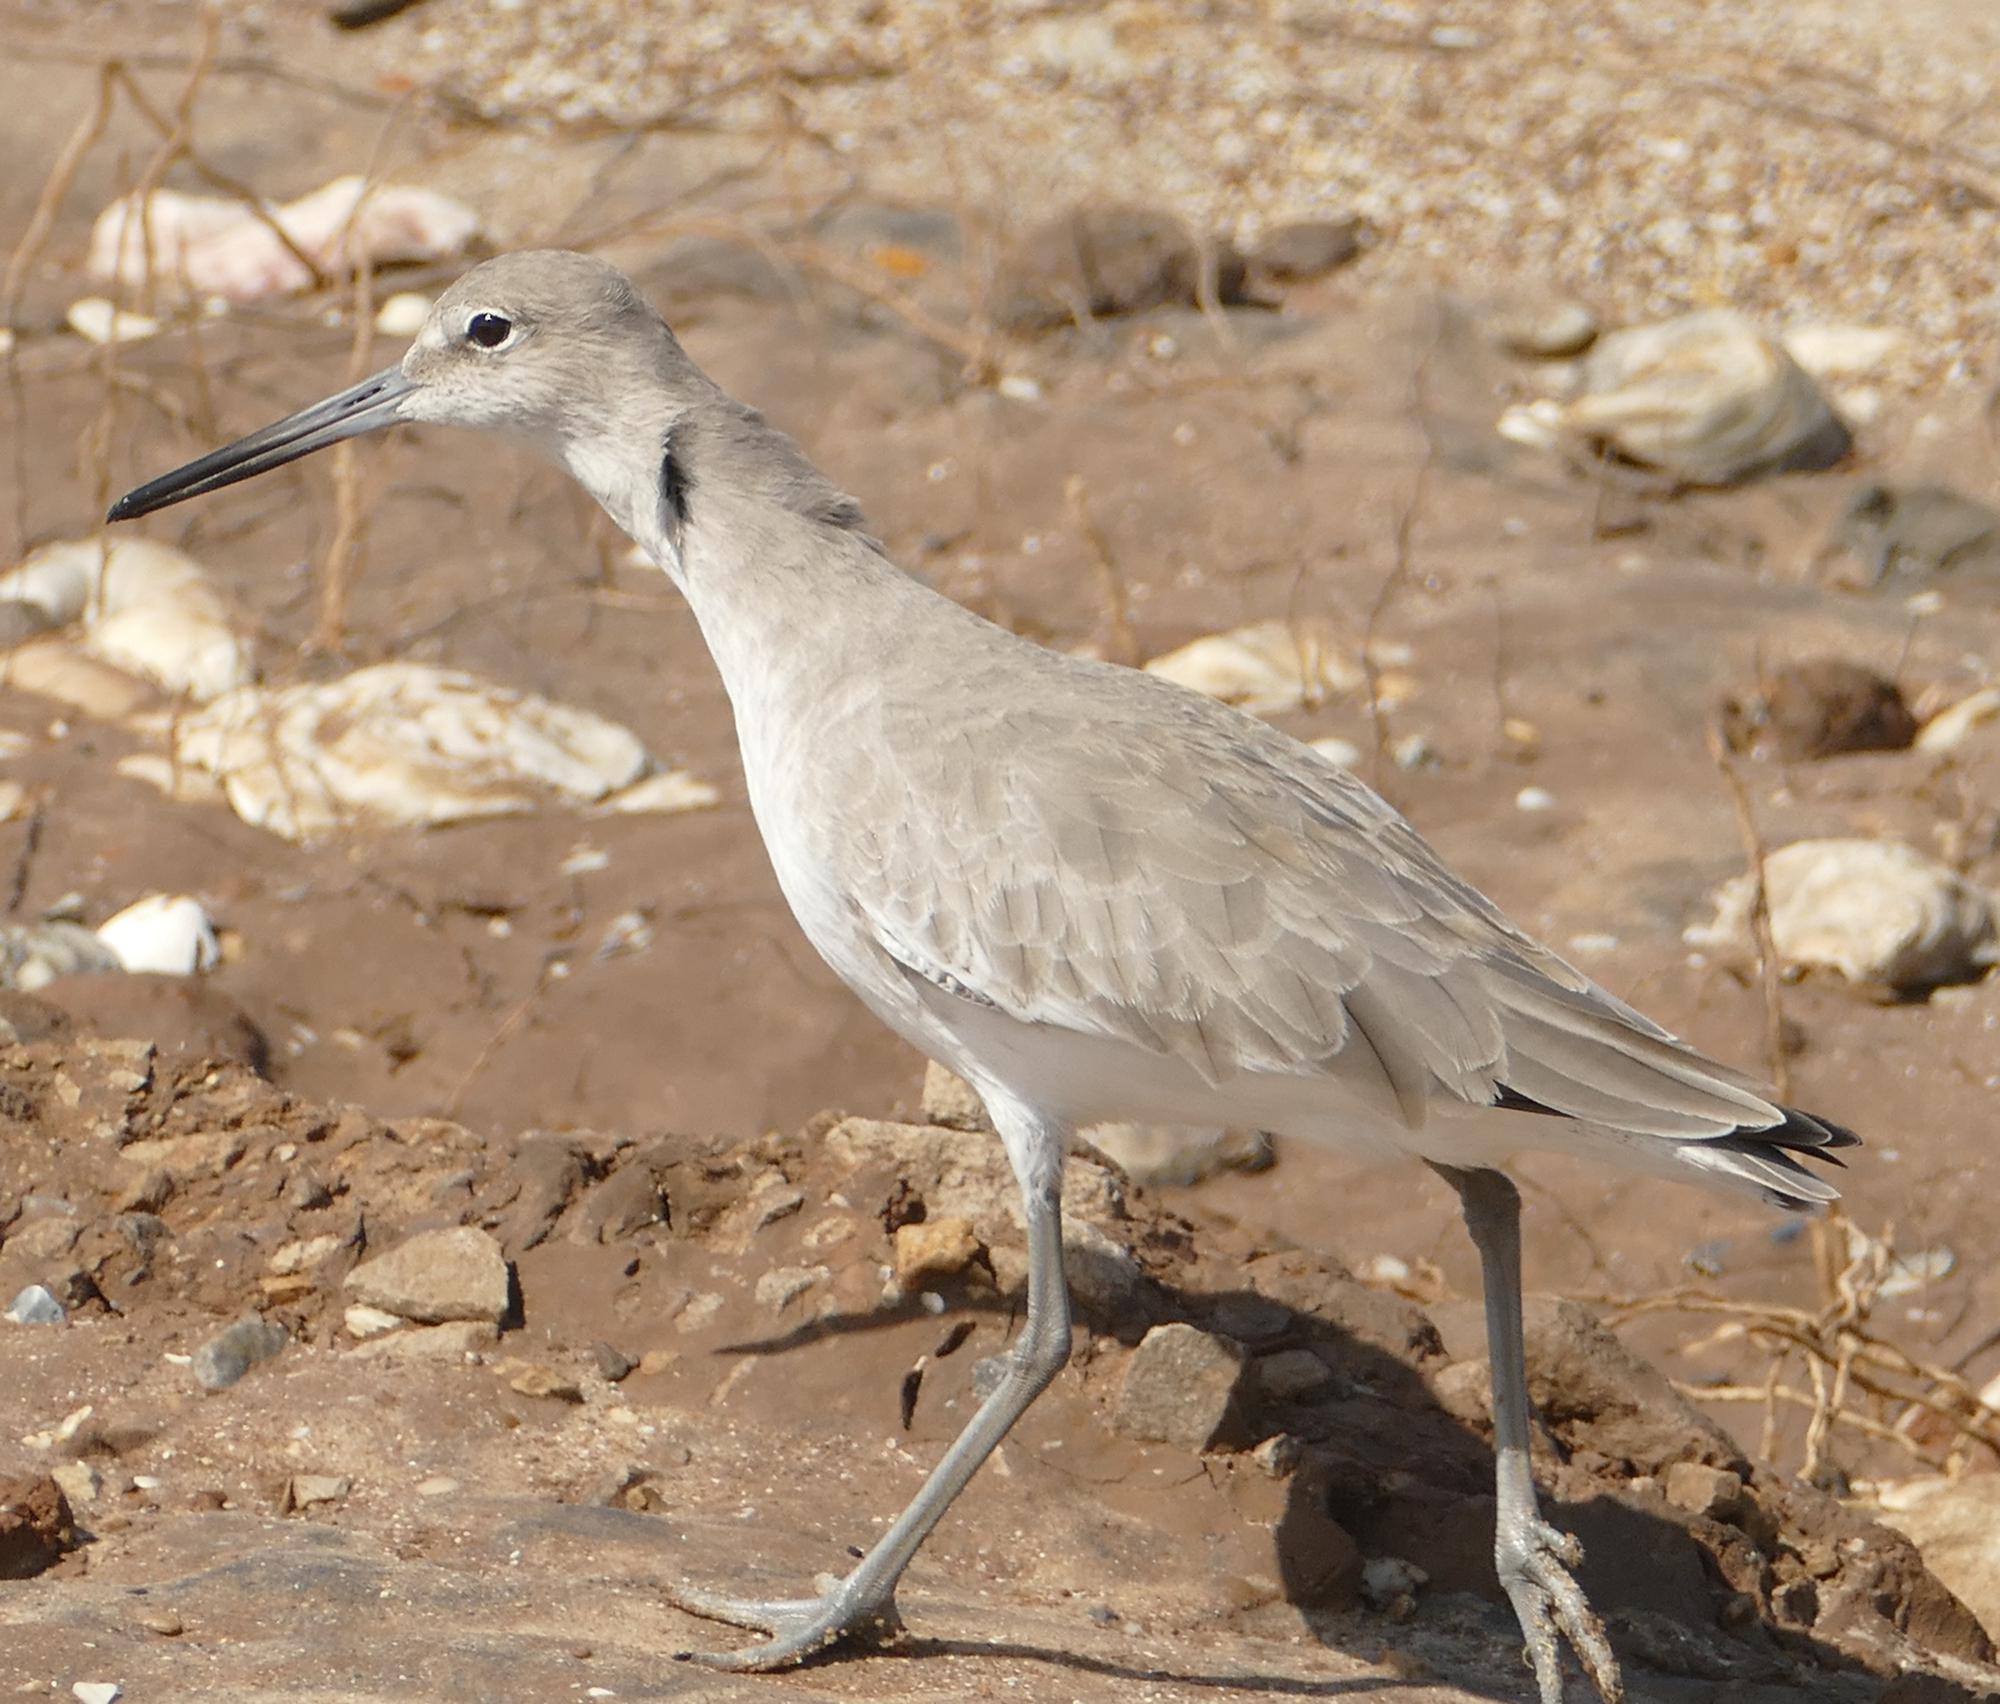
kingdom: Animalia
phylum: Chordata
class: Aves
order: Charadriiformes
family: Scolopacidae
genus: Tringa
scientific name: Tringa semipalmata
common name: Willet
